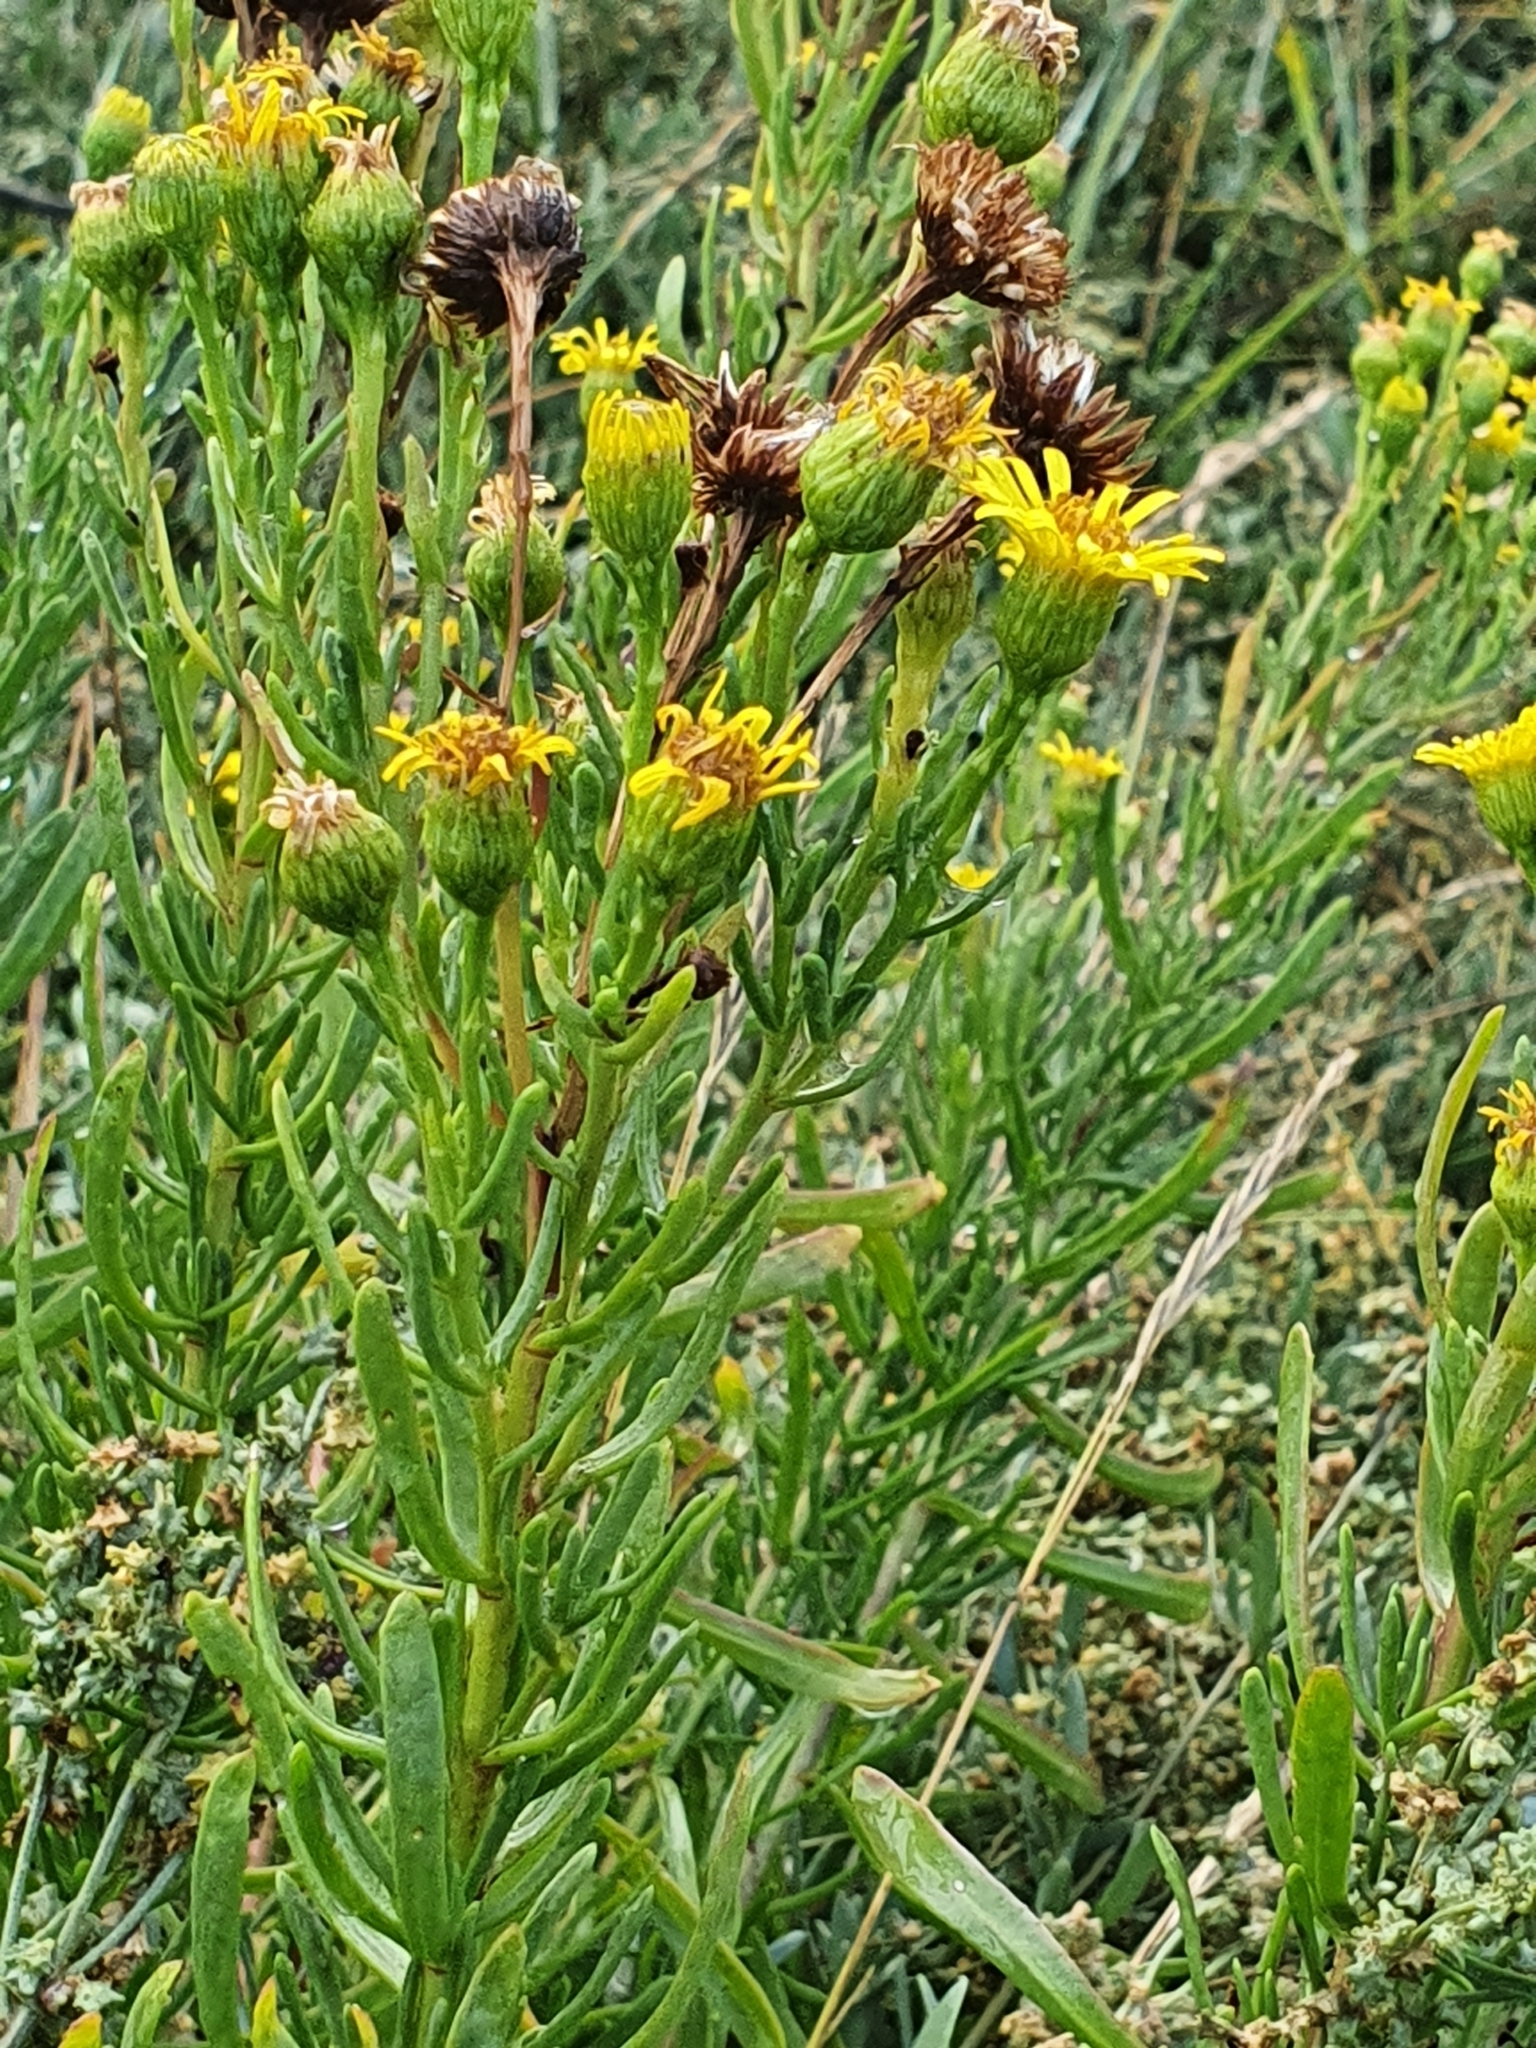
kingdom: Plantae
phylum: Tracheophyta
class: Magnoliopsida
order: Asterales
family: Asteraceae
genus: Limbarda
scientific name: Limbarda crithmoides
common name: Golden samphire
